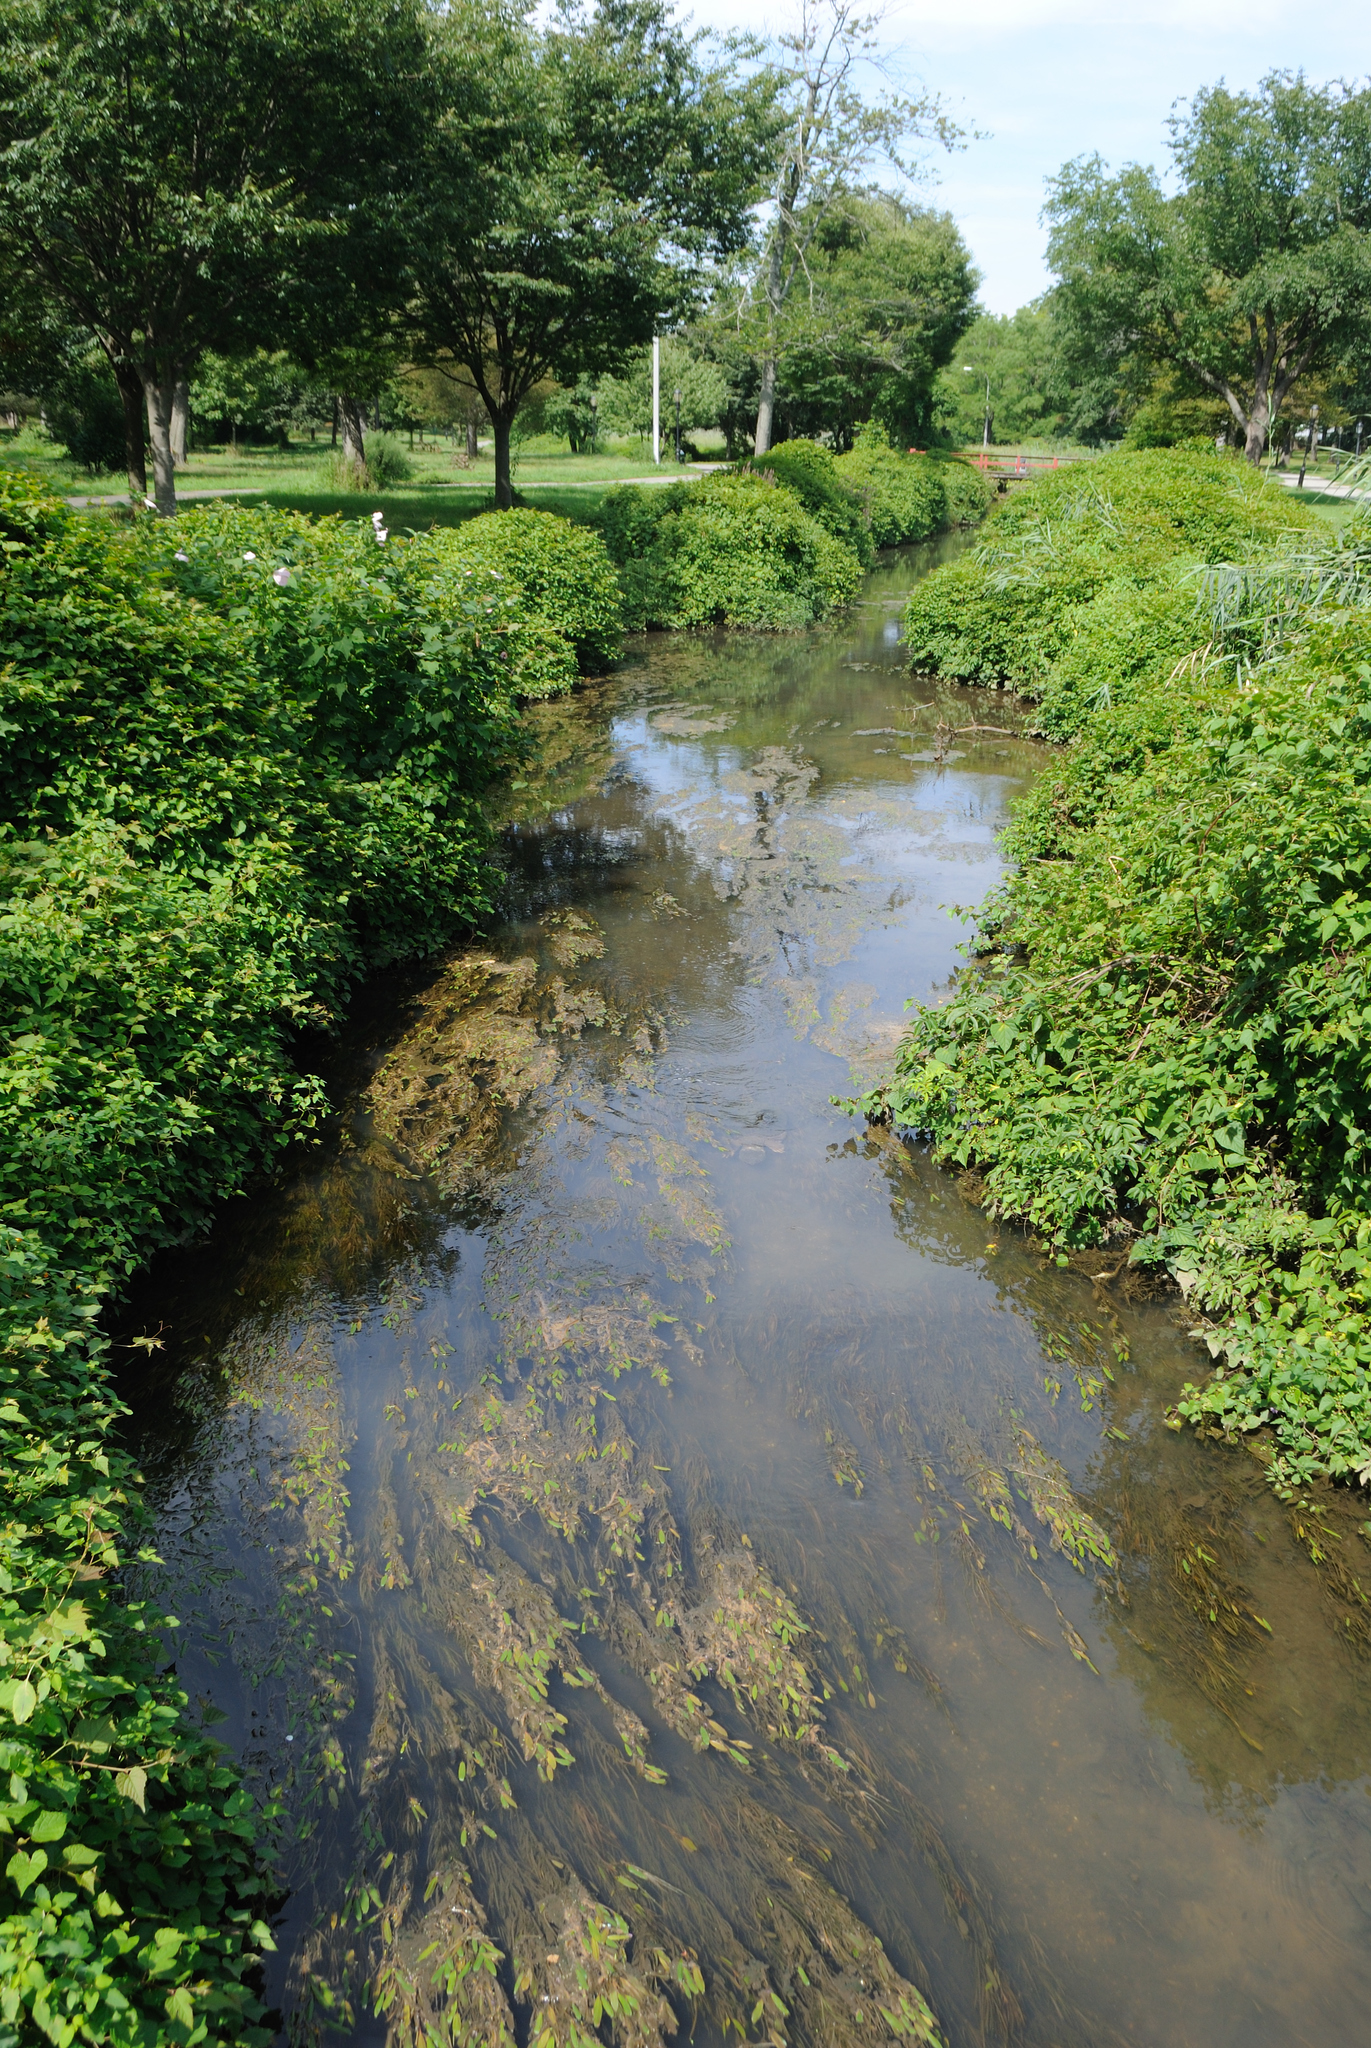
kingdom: Plantae
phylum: Tracheophyta
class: Liliopsida
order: Alismatales
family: Potamogetonaceae
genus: Potamogeton
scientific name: Potamogeton epihydrus
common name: American pondweed
